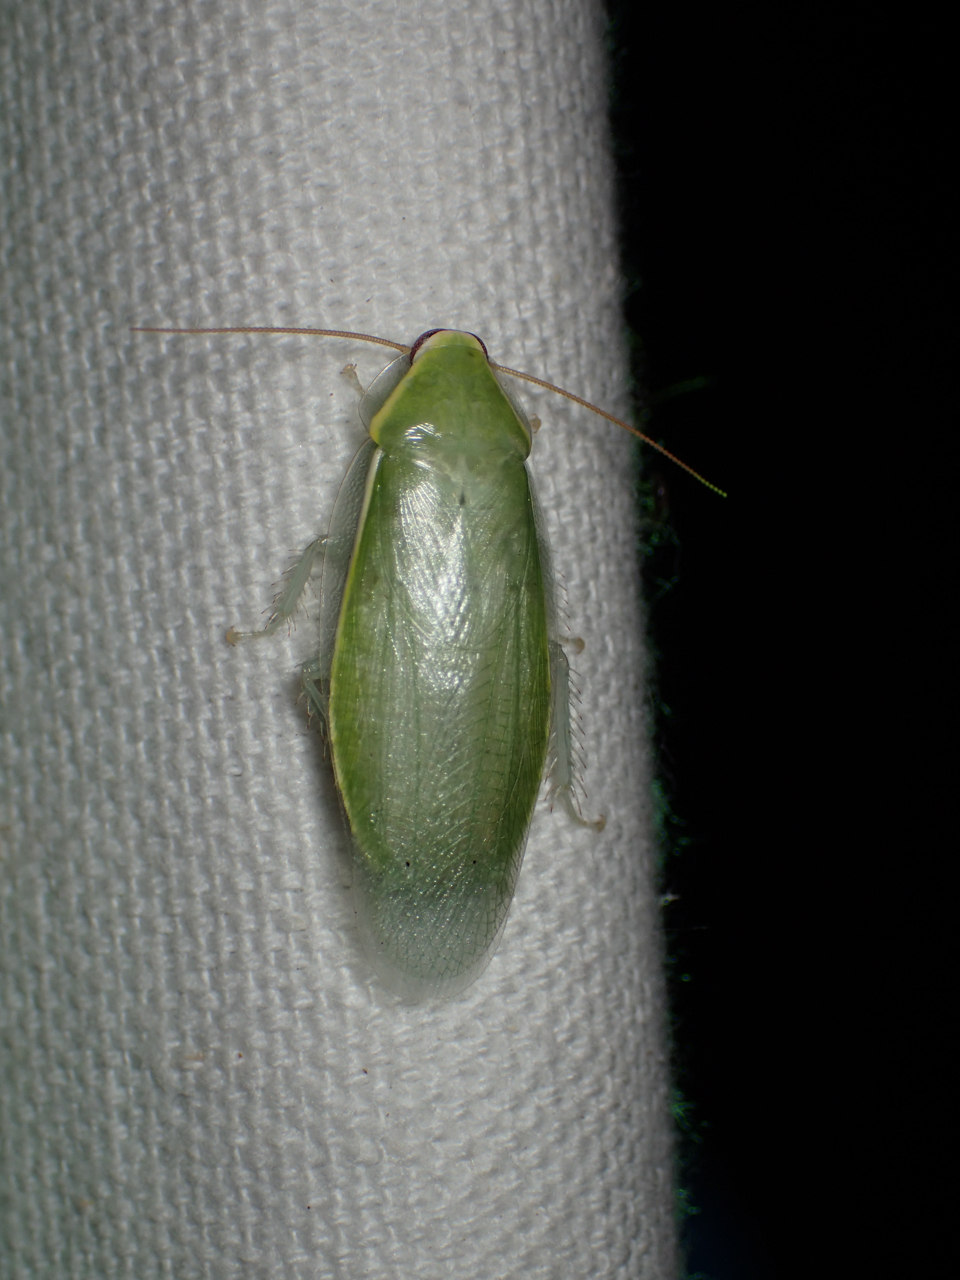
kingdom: Animalia
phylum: Arthropoda
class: Insecta
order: Blattodea
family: Blaberidae
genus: Panchlora
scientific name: Panchlora nivea
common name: Cuban cockroach
